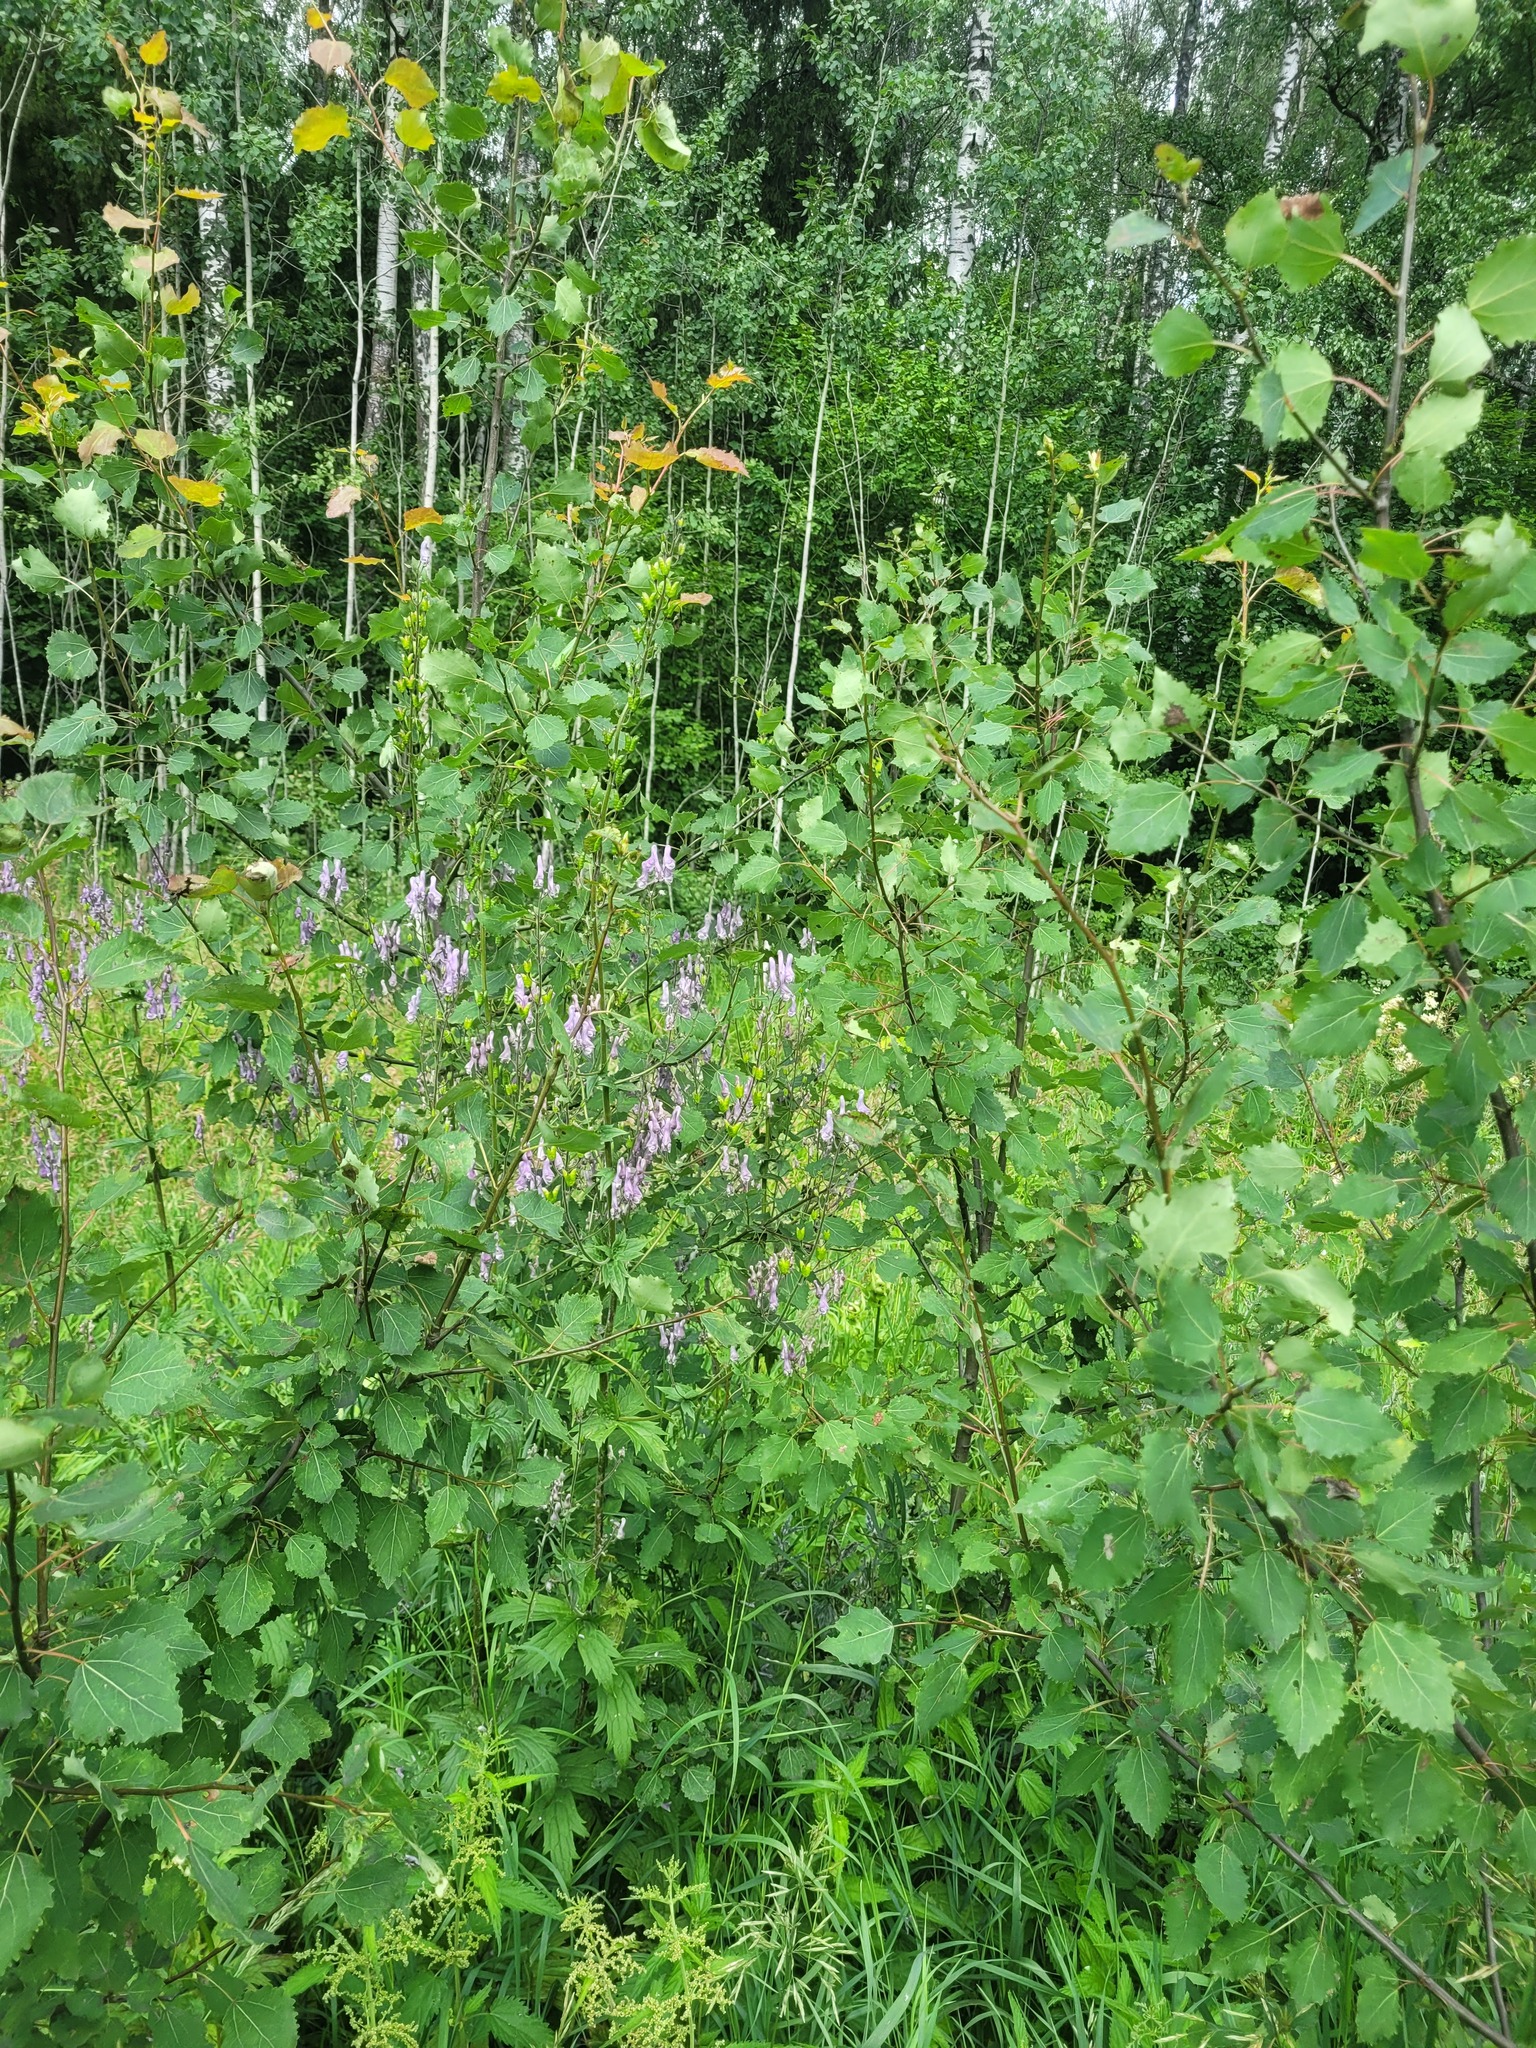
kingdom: Plantae
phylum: Tracheophyta
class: Magnoliopsida
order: Ranunculales
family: Ranunculaceae
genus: Aconitum
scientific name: Aconitum septentrionale
